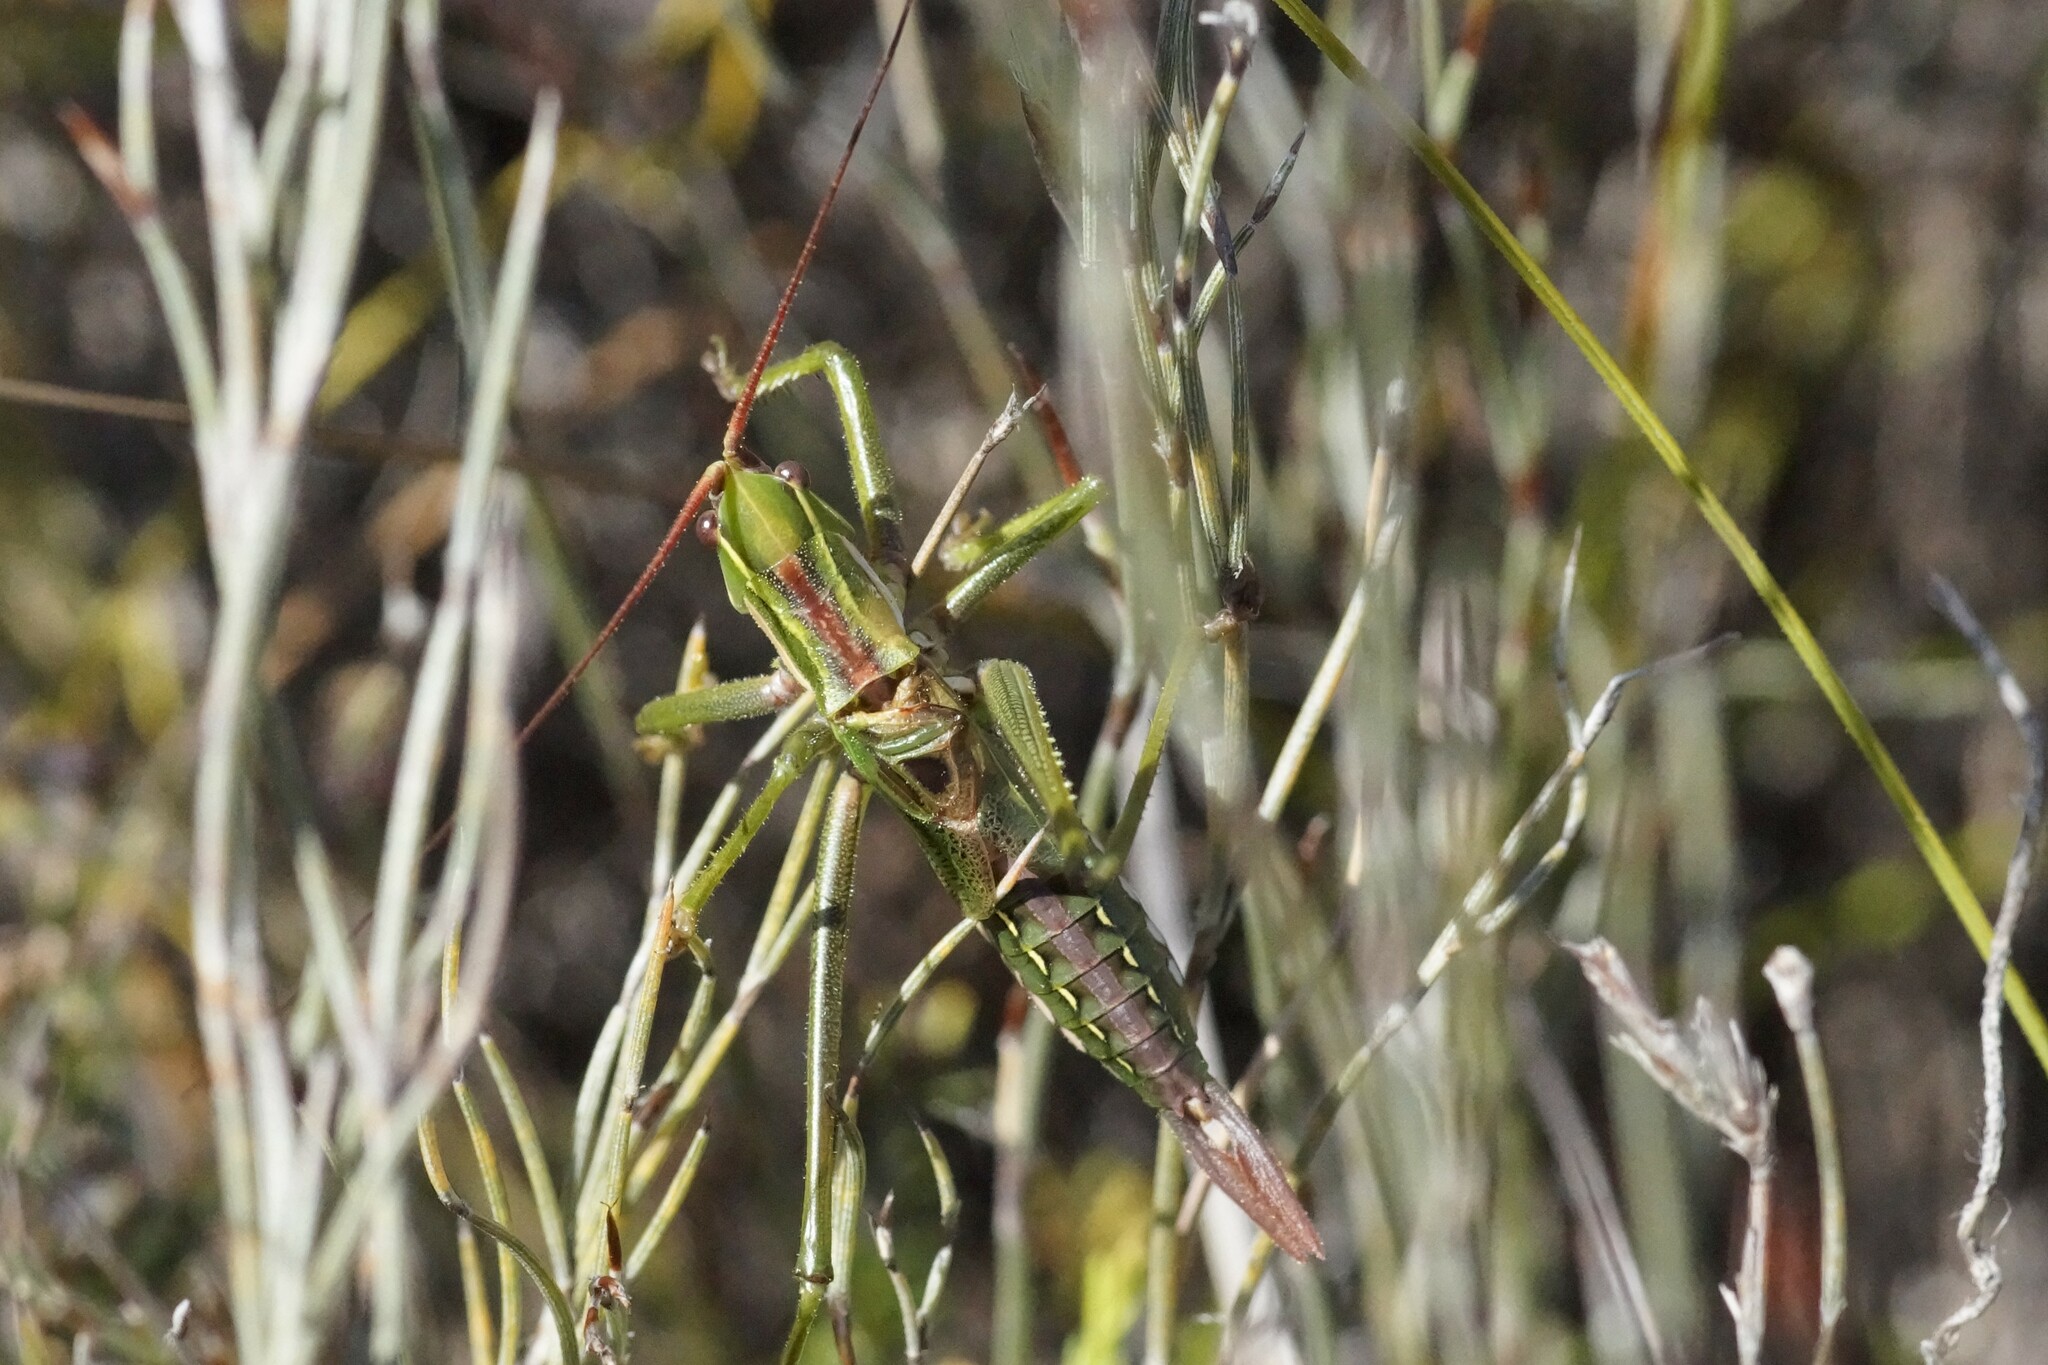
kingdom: Animalia
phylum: Arthropoda
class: Insecta
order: Orthoptera
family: Tettigoniidae
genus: Hemisaga
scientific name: Hemisaga lanceolata
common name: Victorian sluggish katydid
